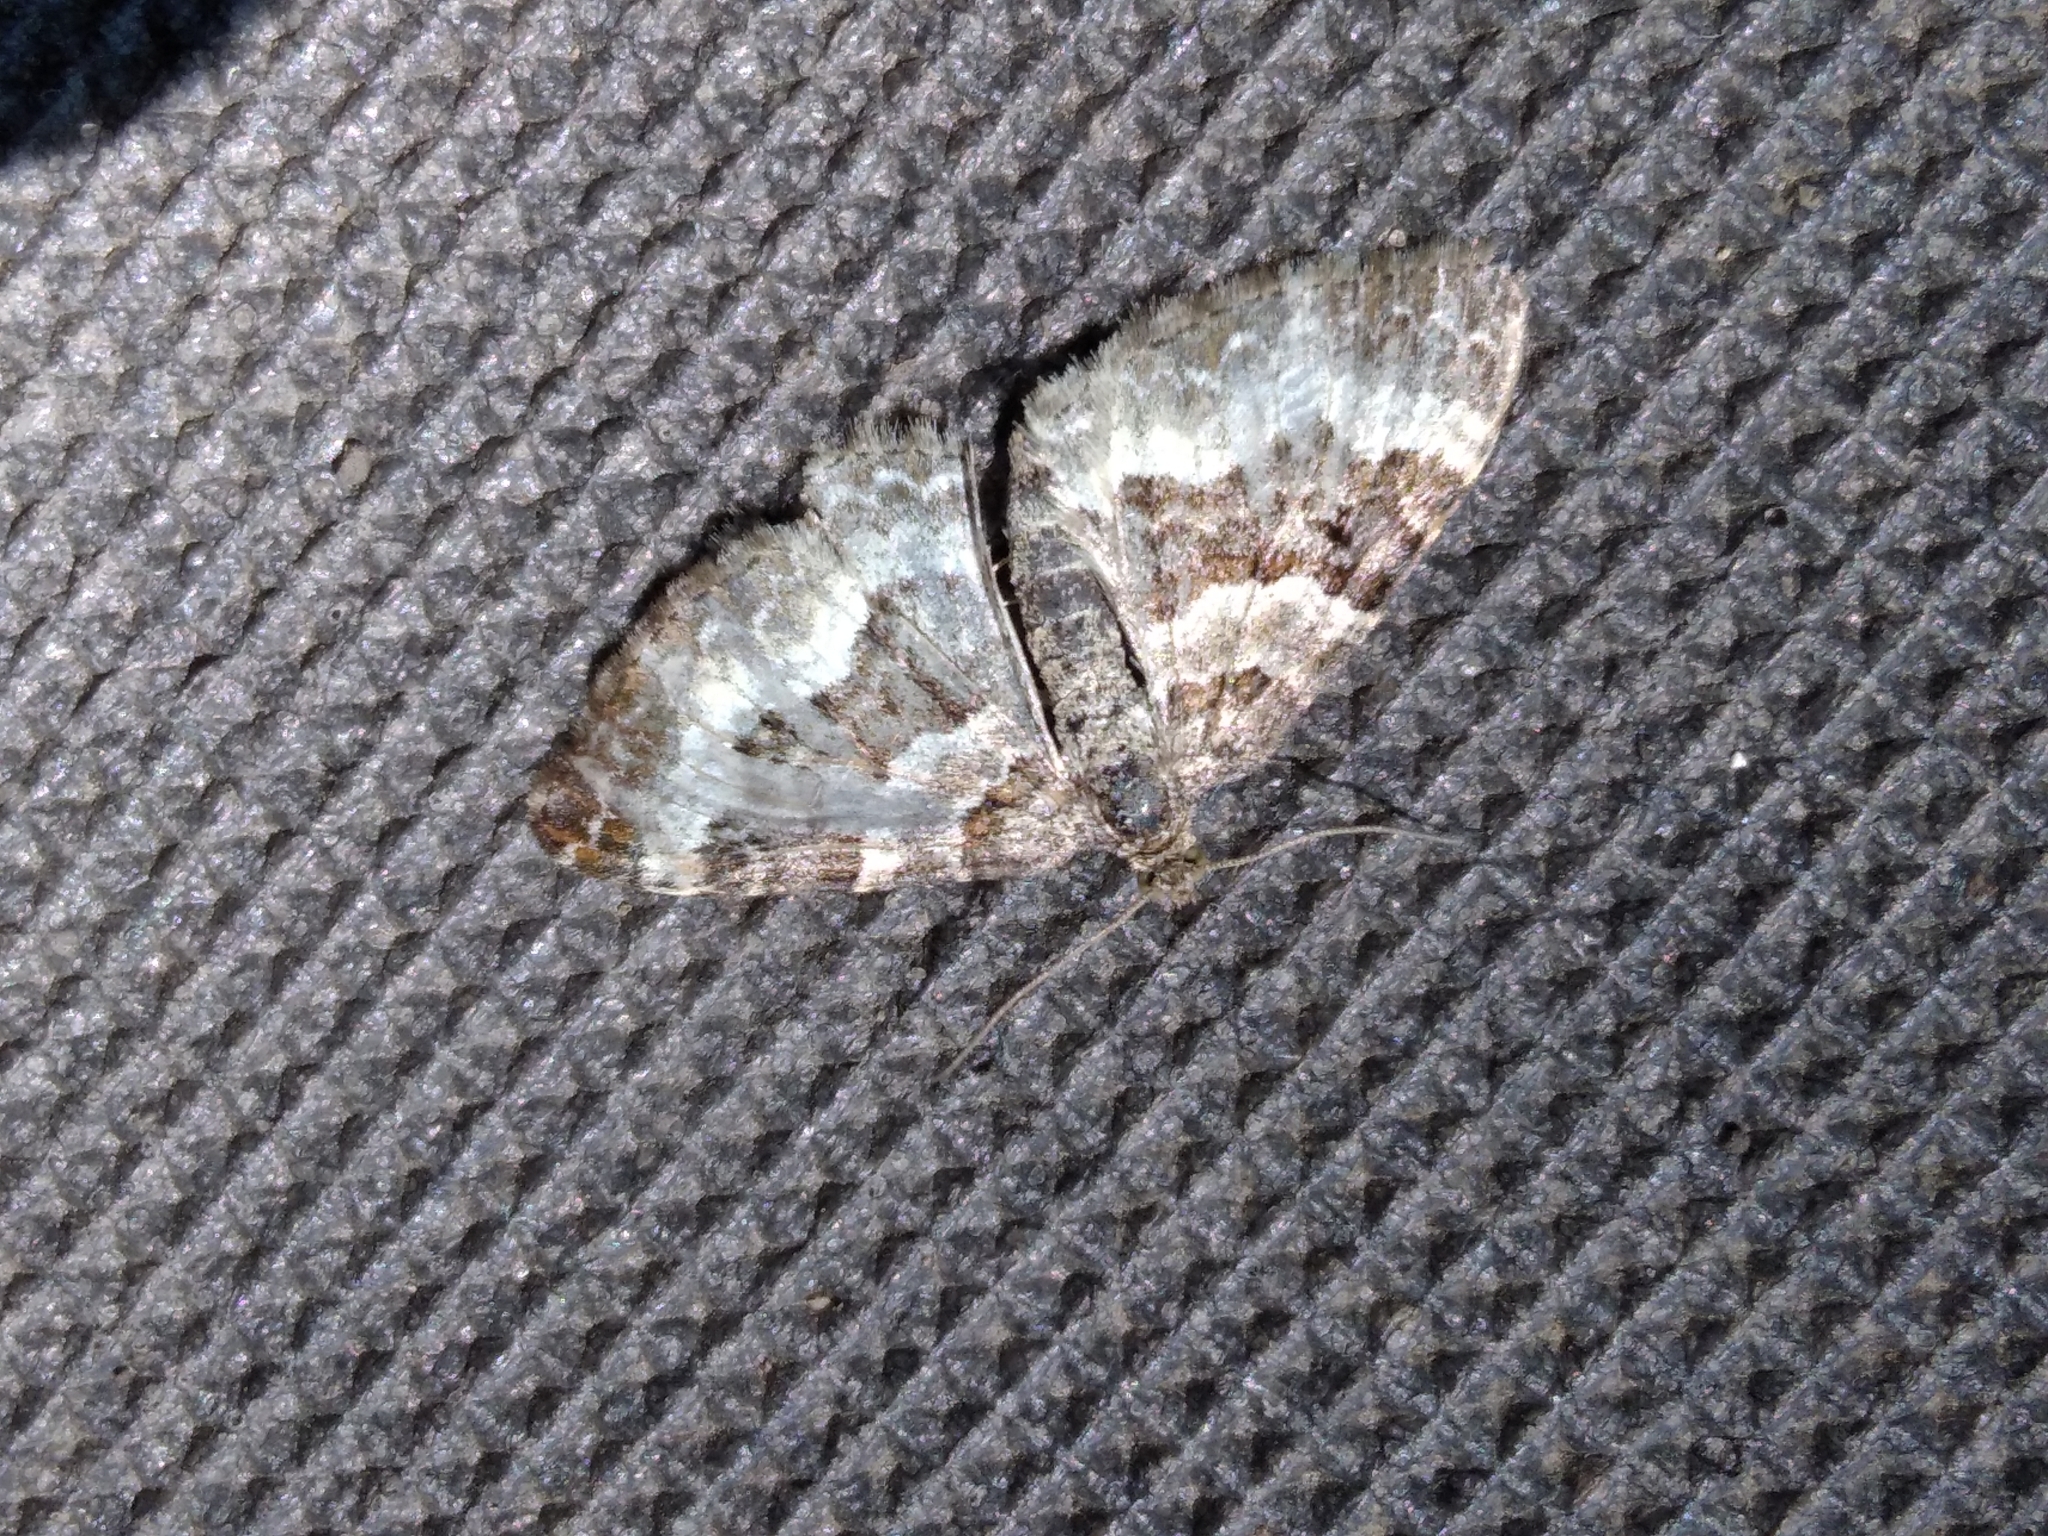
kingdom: Animalia
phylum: Arthropoda
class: Insecta
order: Lepidoptera
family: Geometridae
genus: Epirrhoe
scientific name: Epirrhoe alternata
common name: Common carpet
